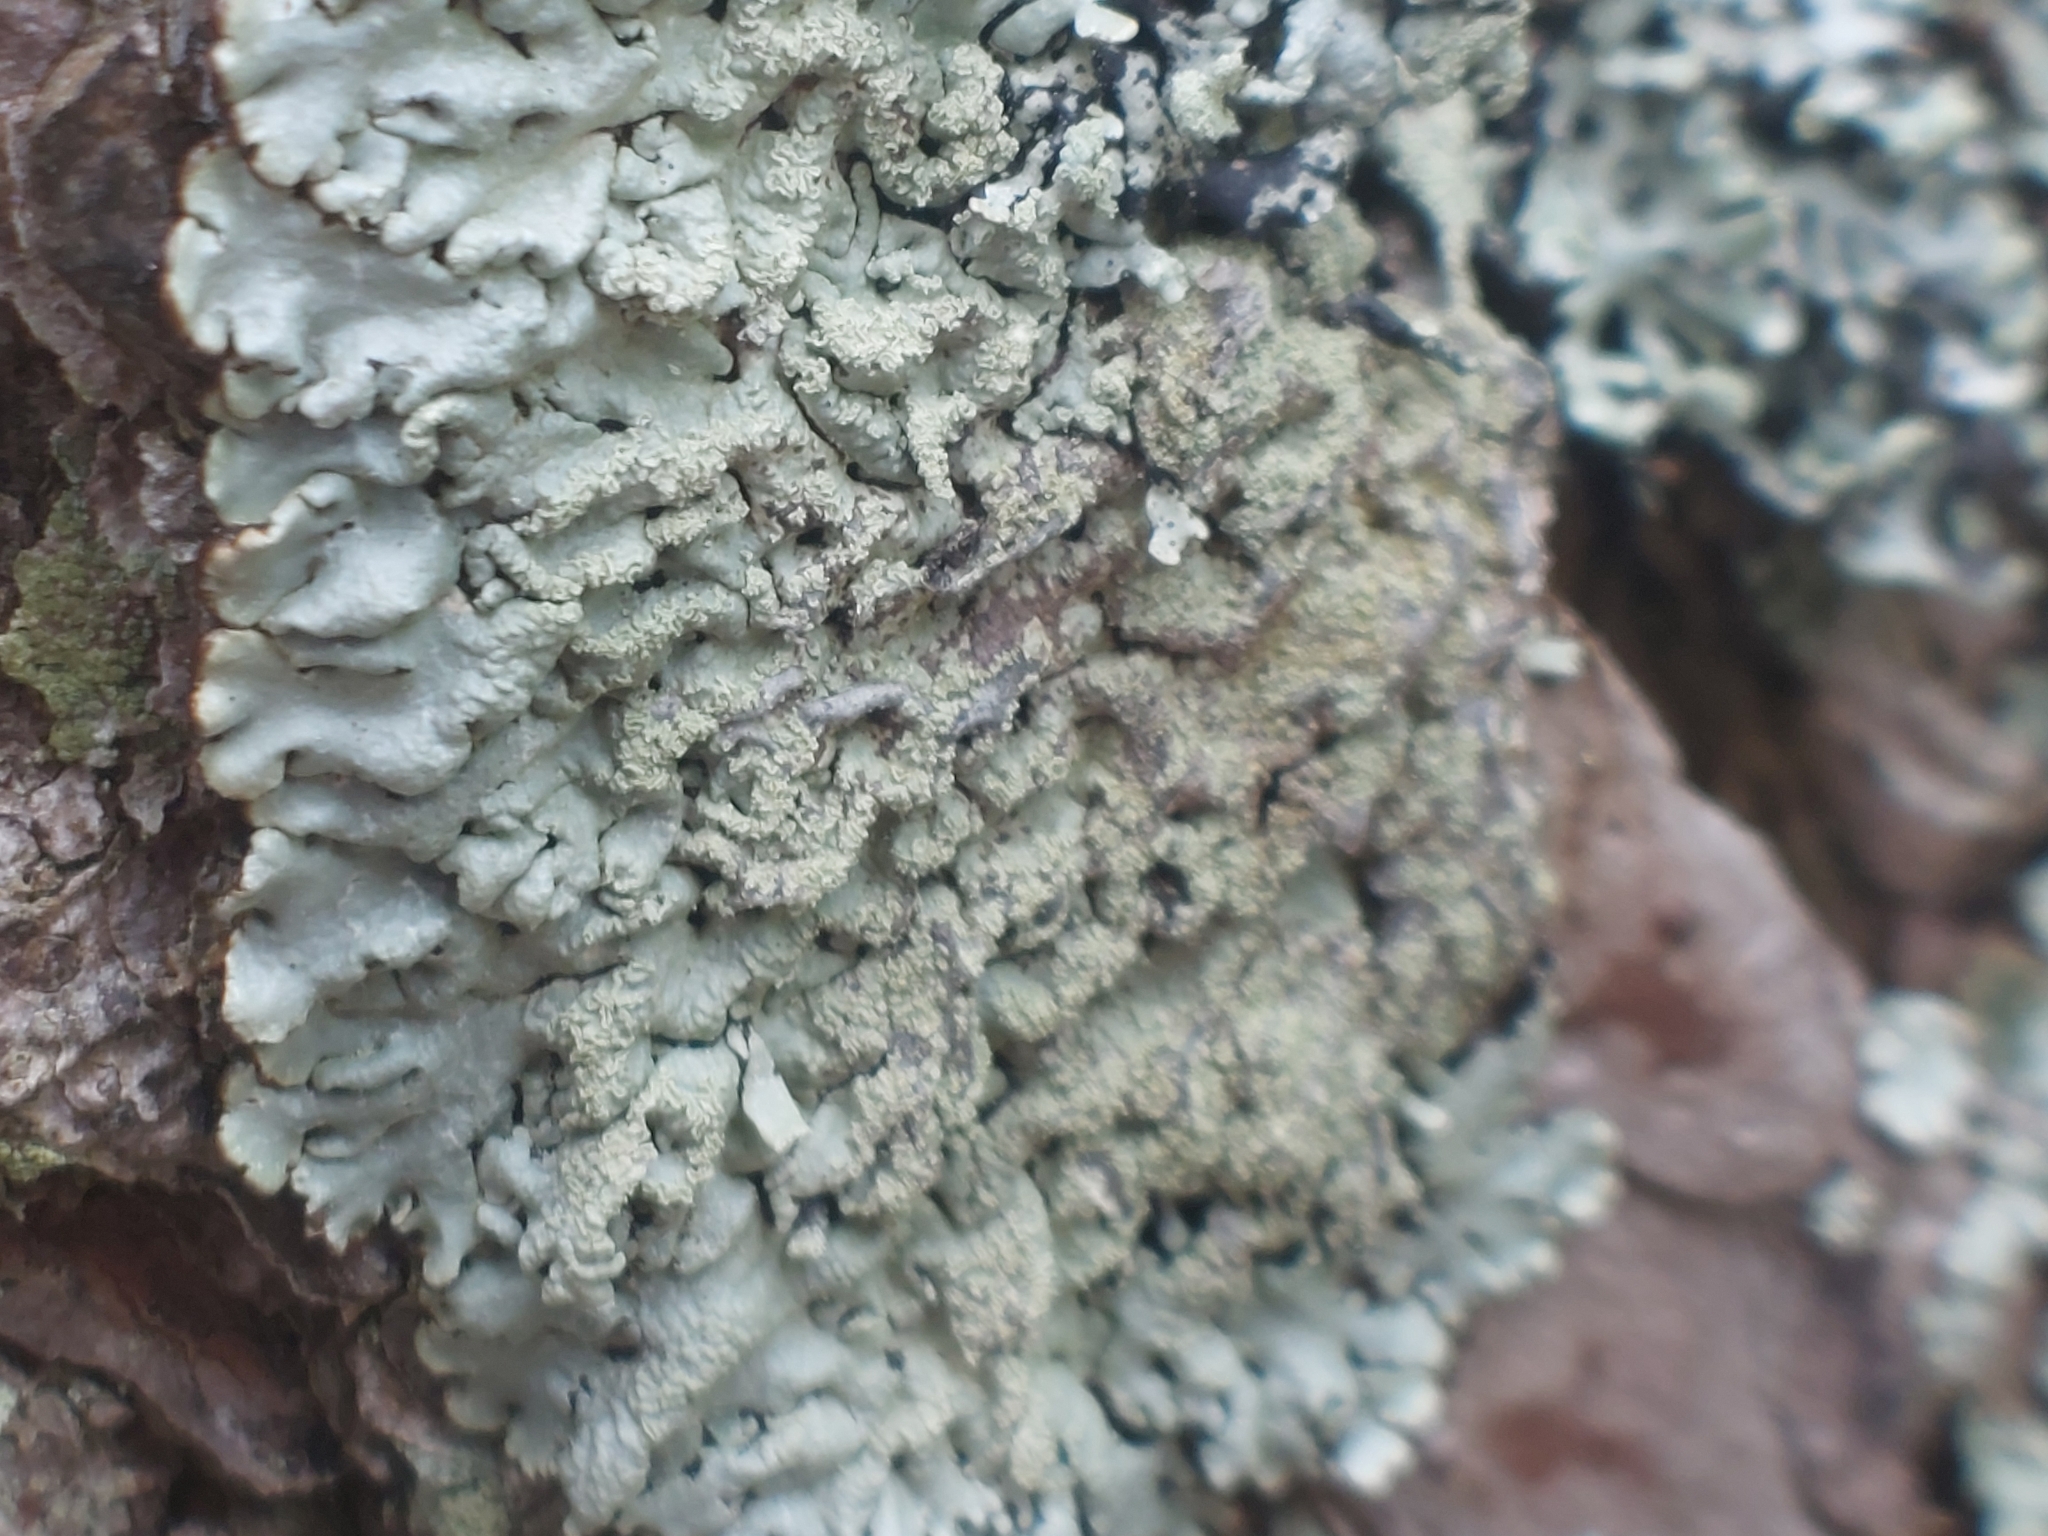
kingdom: Fungi
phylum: Ascomycota
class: Lecanoromycetes
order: Lecanorales
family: Parmeliaceae
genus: Hypogymnia
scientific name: Hypogymnia farinacea
